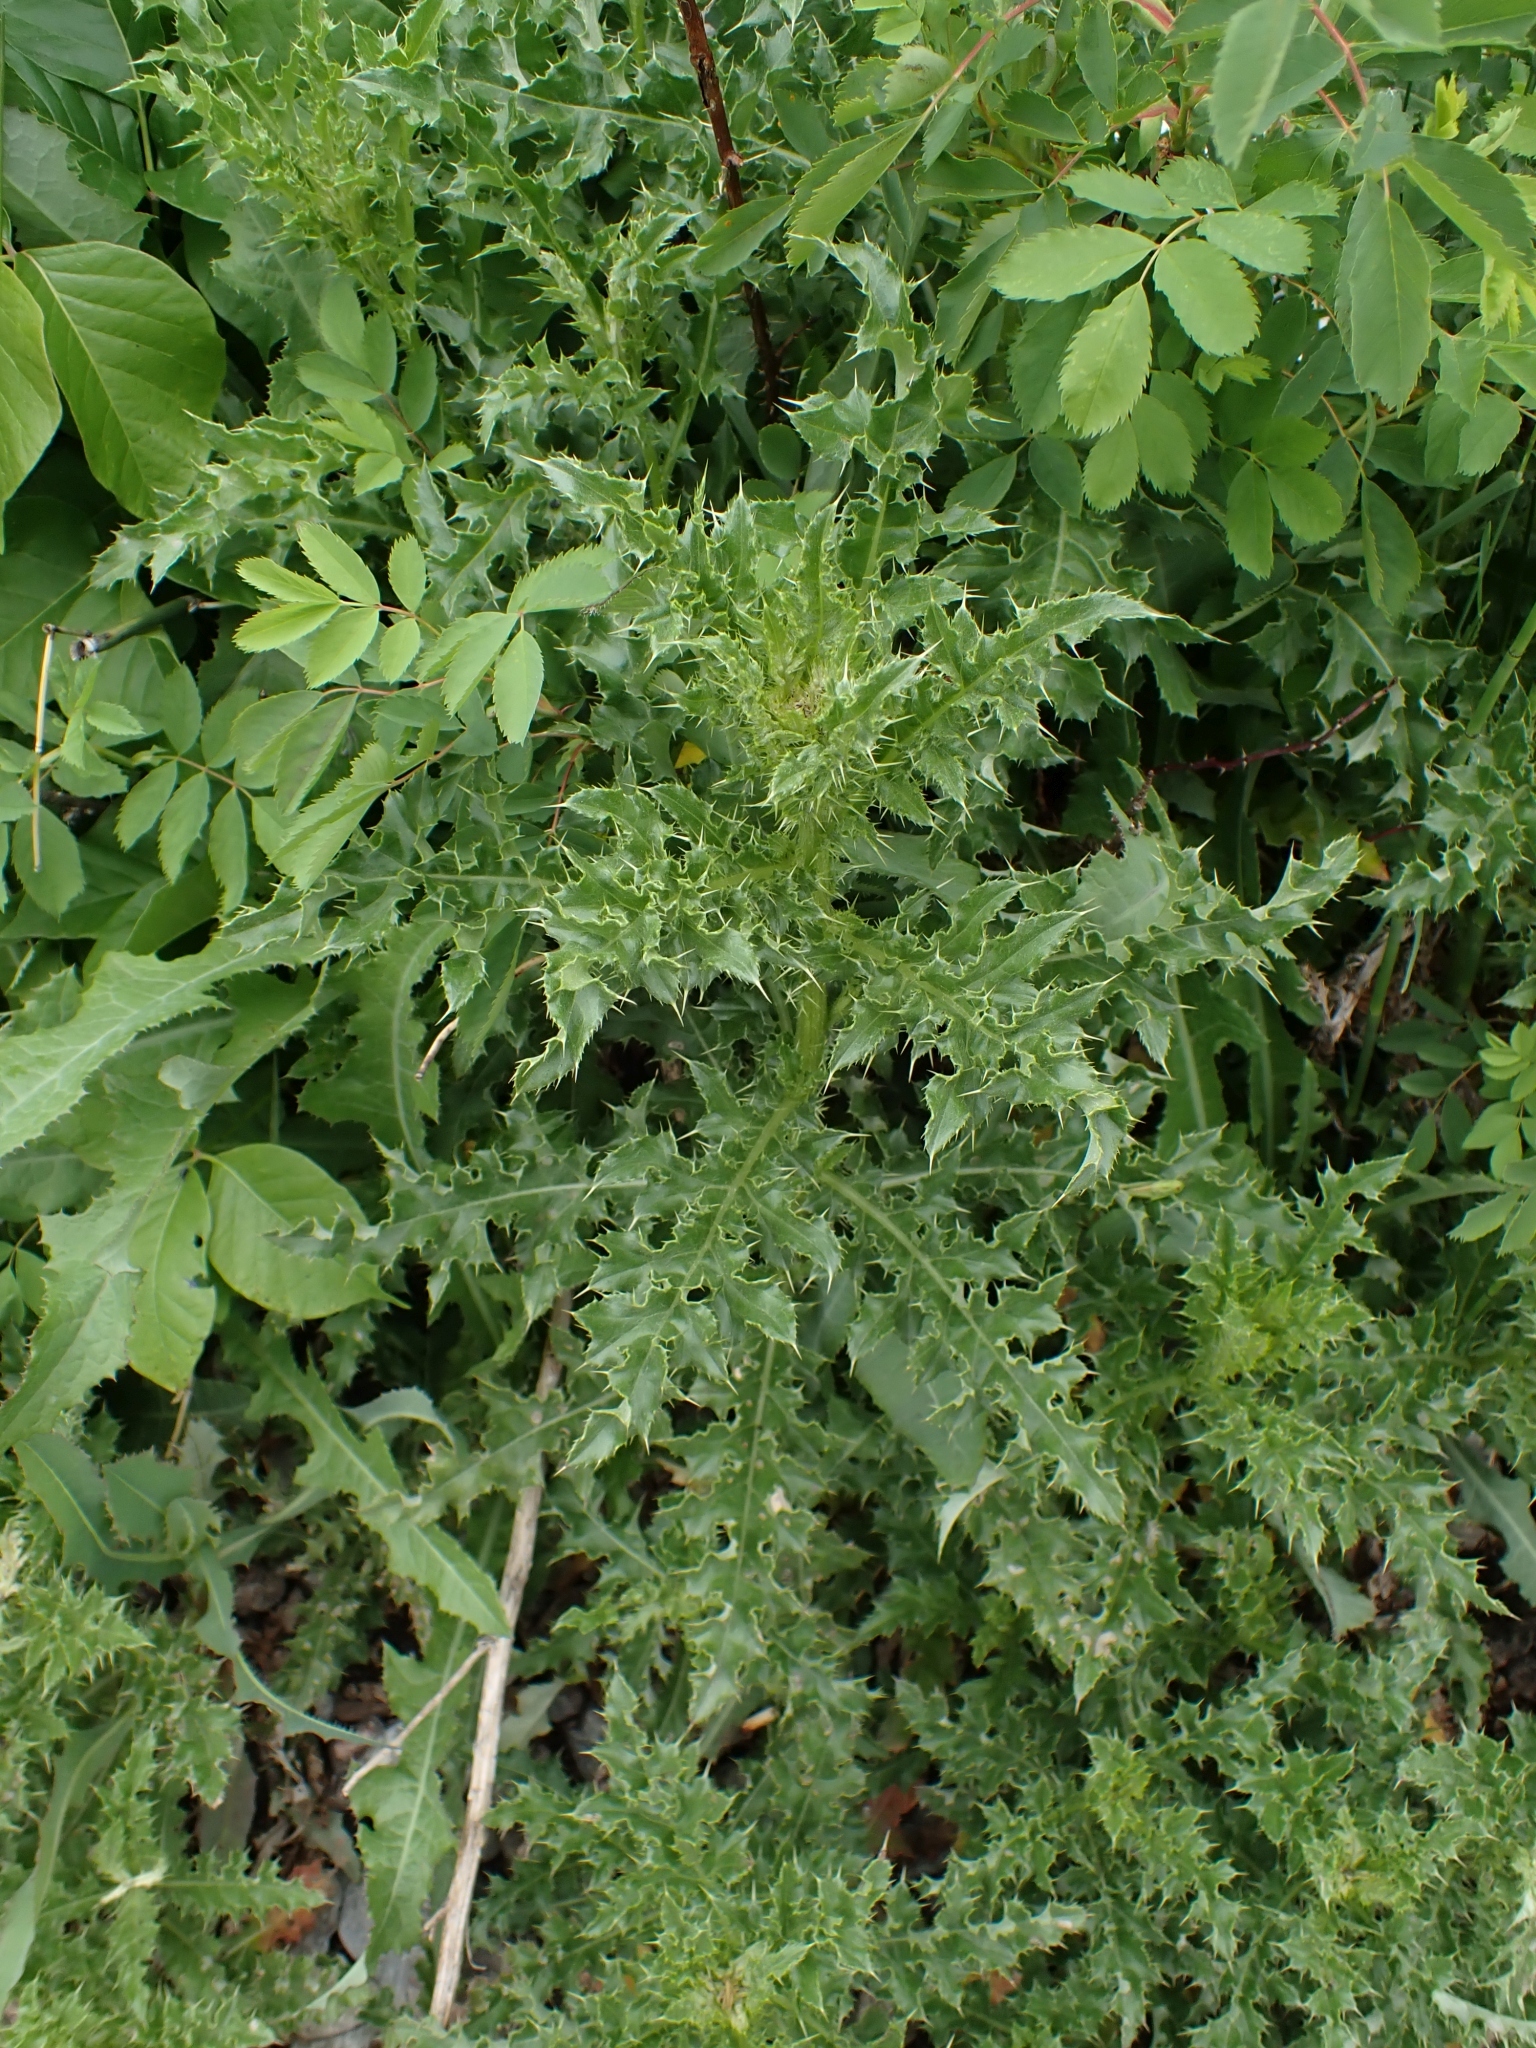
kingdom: Plantae
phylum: Tracheophyta
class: Magnoliopsida
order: Asterales
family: Asteraceae
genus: Cirsium
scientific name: Cirsium arvense
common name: Creeping thistle
